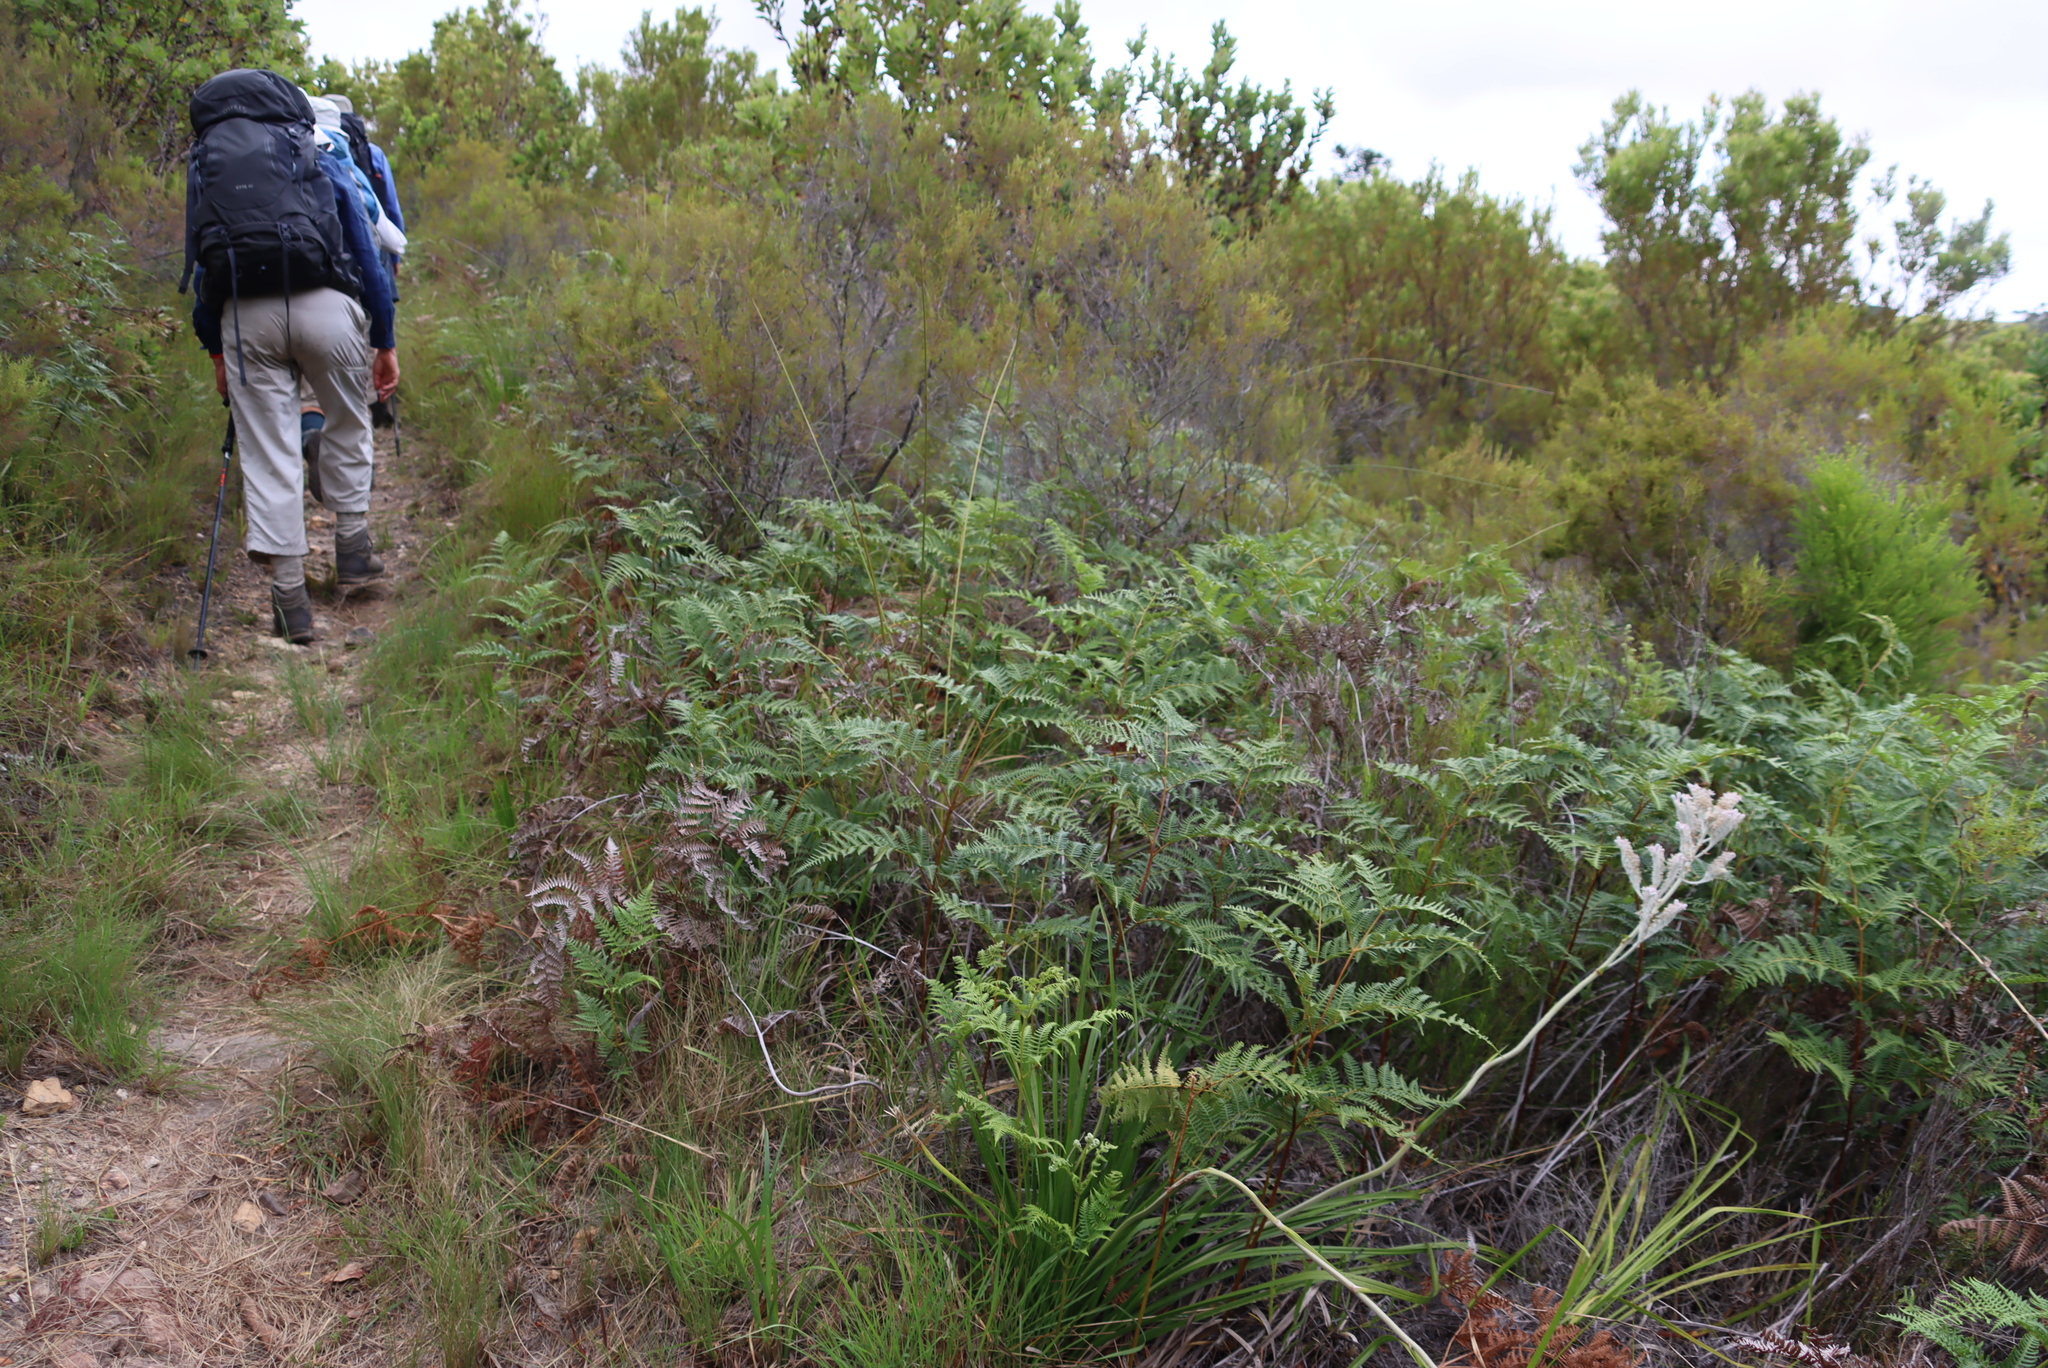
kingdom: Plantae
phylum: Tracheophyta
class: Polypodiopsida
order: Polypodiales
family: Dennstaedtiaceae
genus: Pteridium
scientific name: Pteridium aquilinum
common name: Bracken
